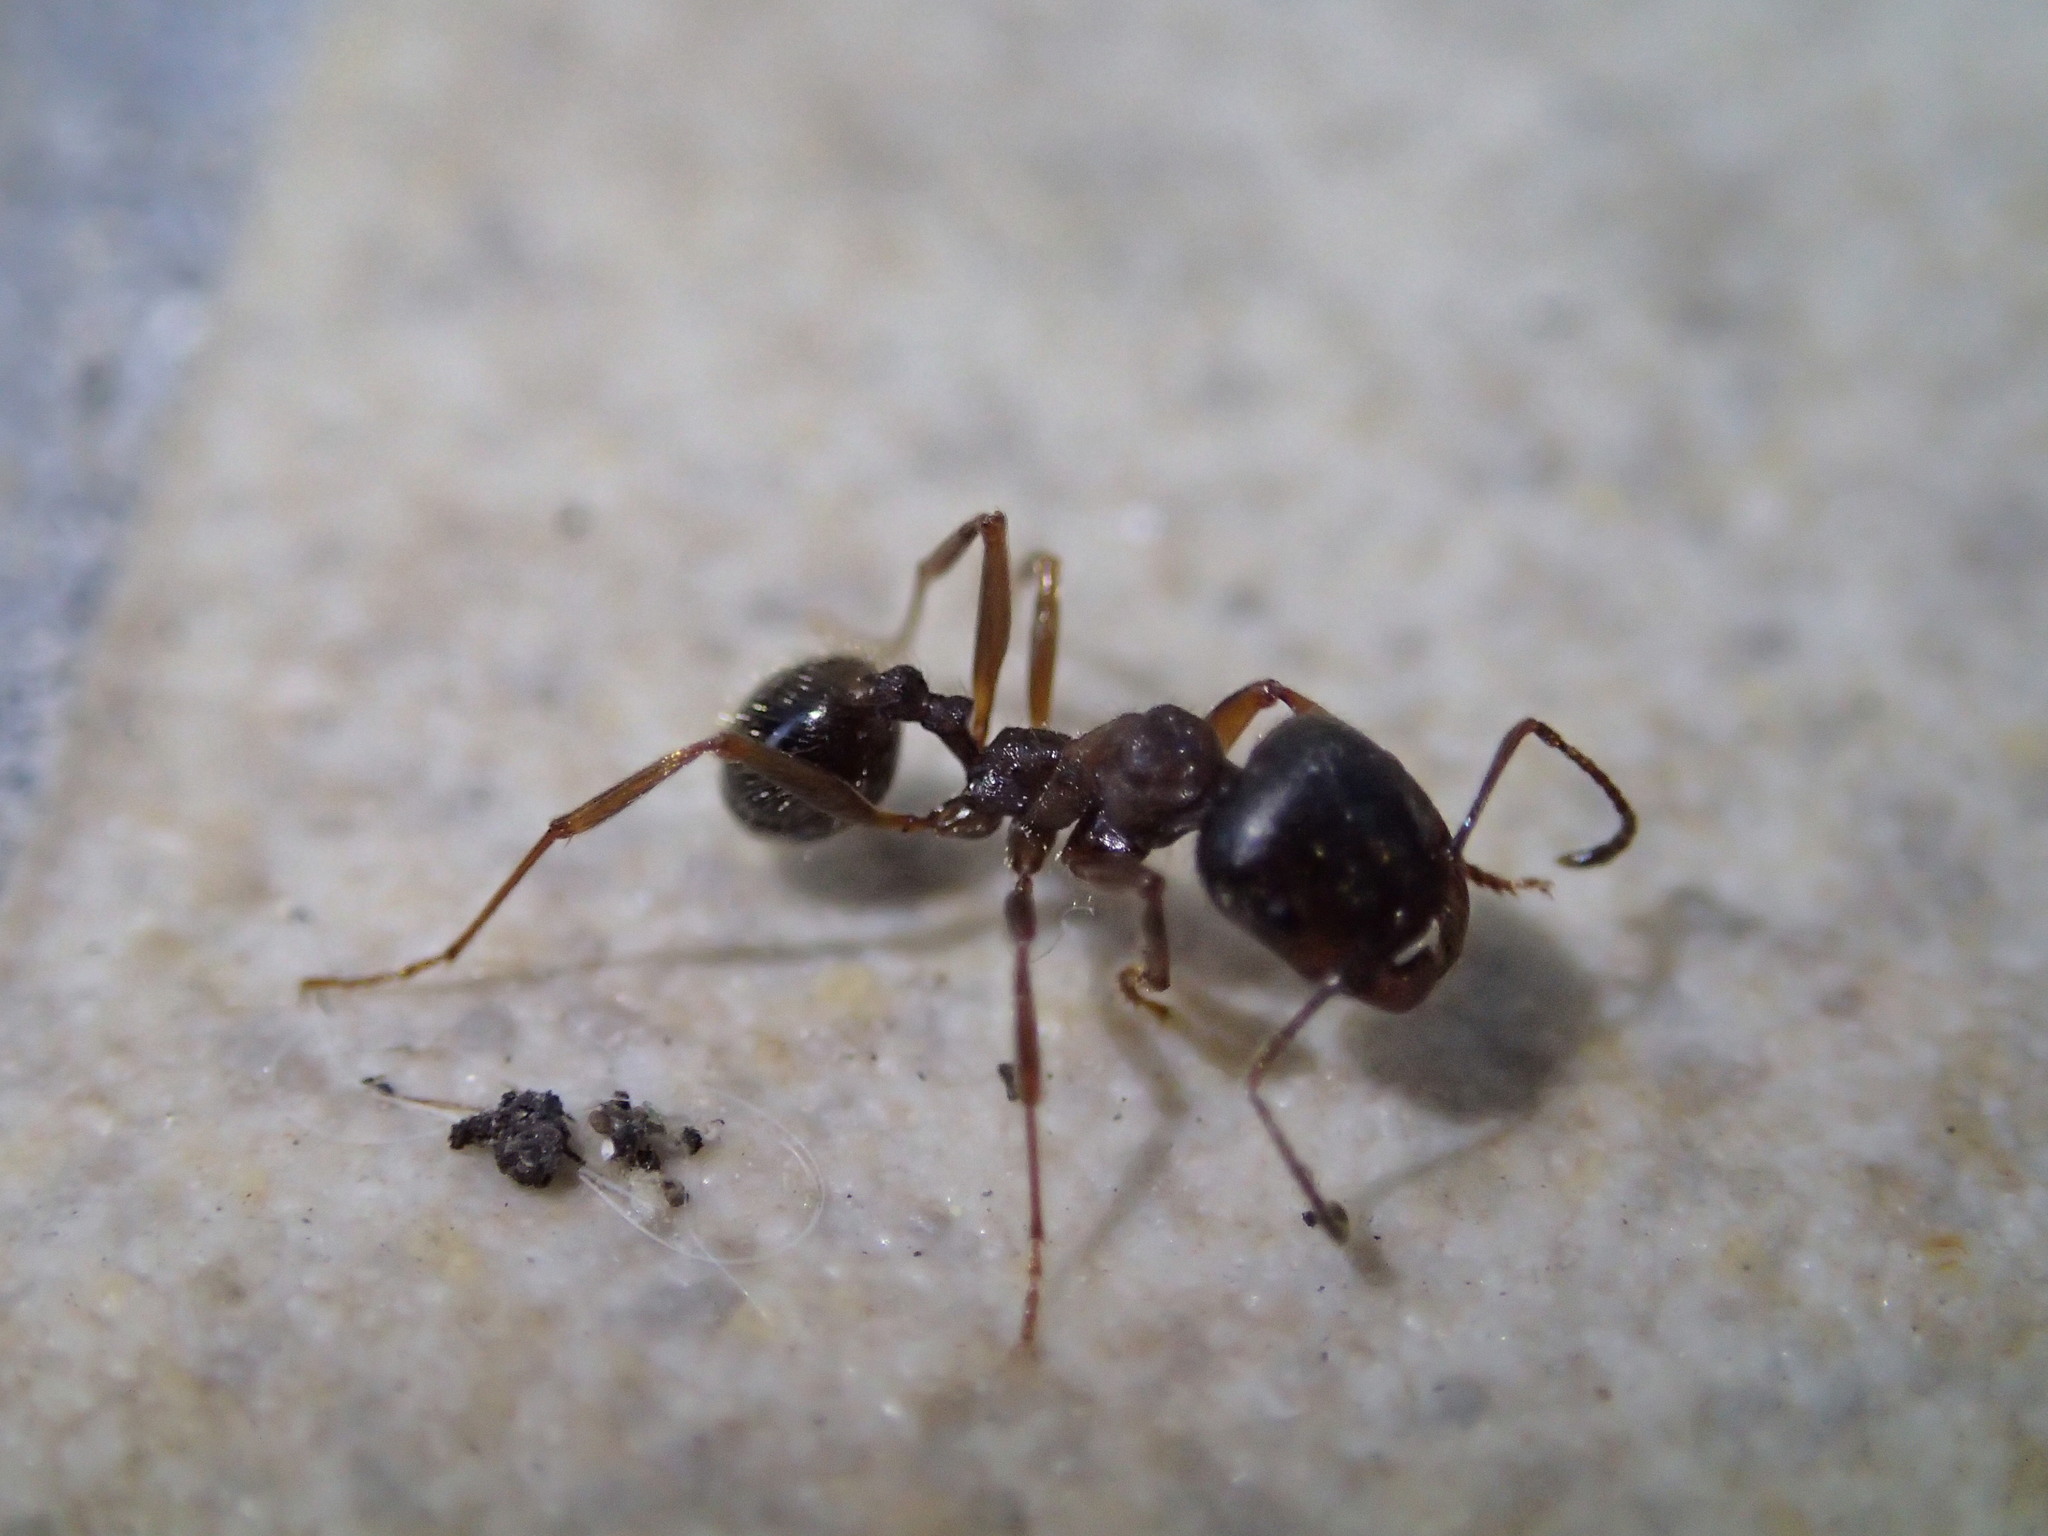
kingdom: Animalia
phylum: Arthropoda
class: Insecta
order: Hymenoptera
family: Formicidae
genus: Messor
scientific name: Messor ibericus
